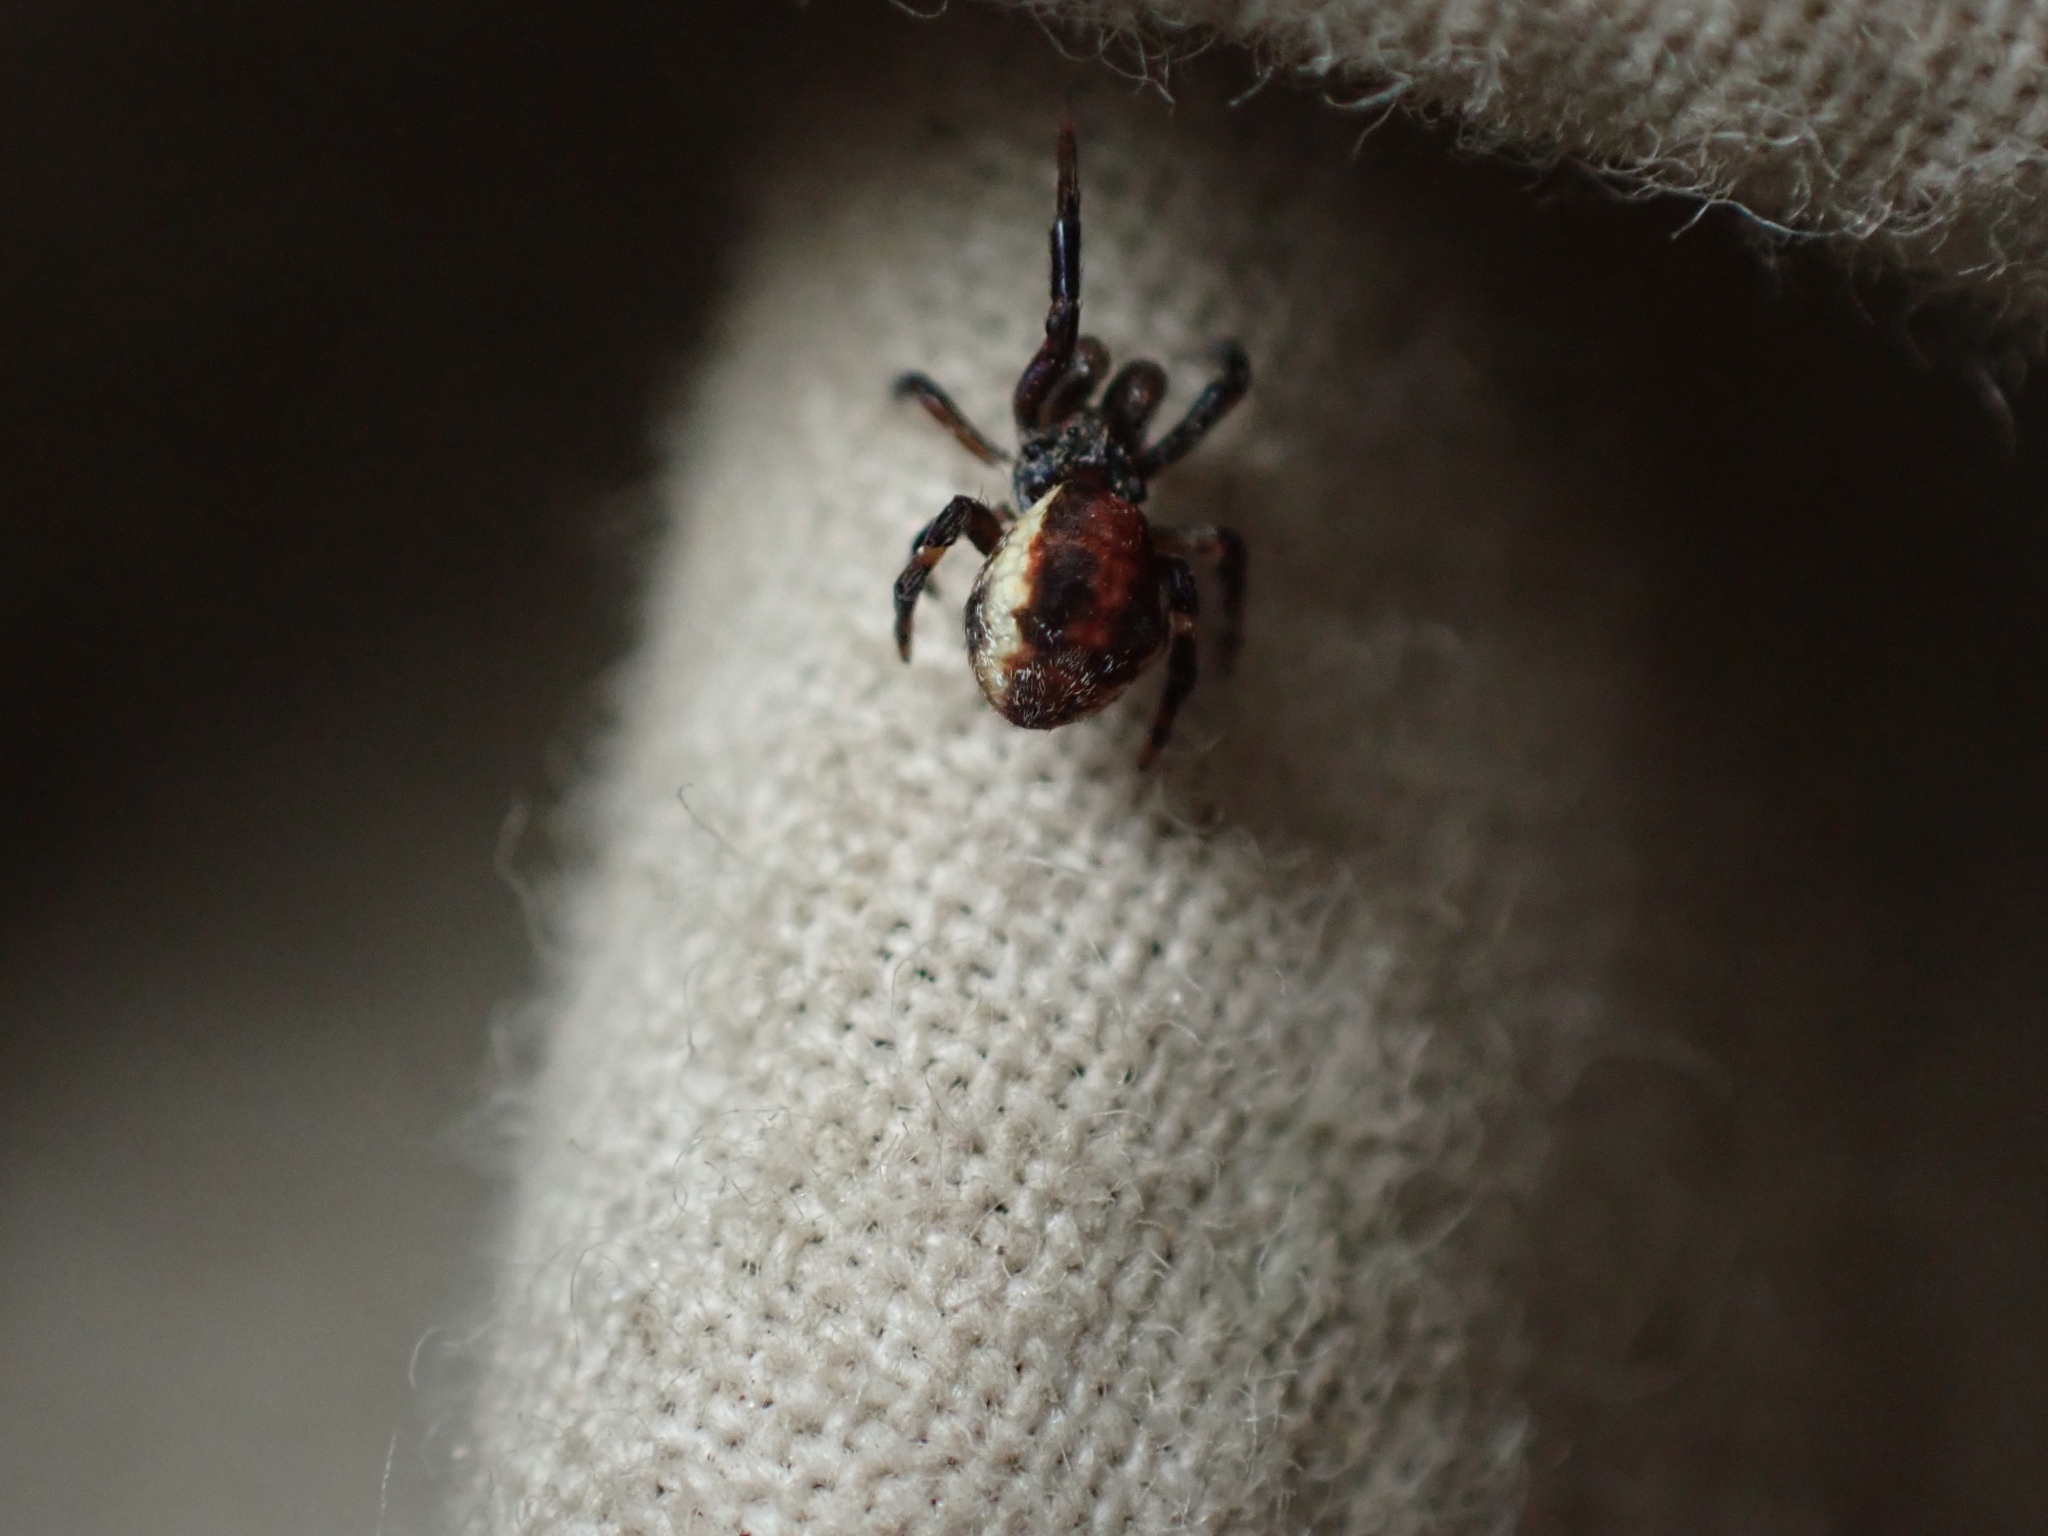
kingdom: Animalia
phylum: Arthropoda
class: Arachnida
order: Araneae
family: Uloboridae
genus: Hyptiotes
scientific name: Hyptiotes gertschi
